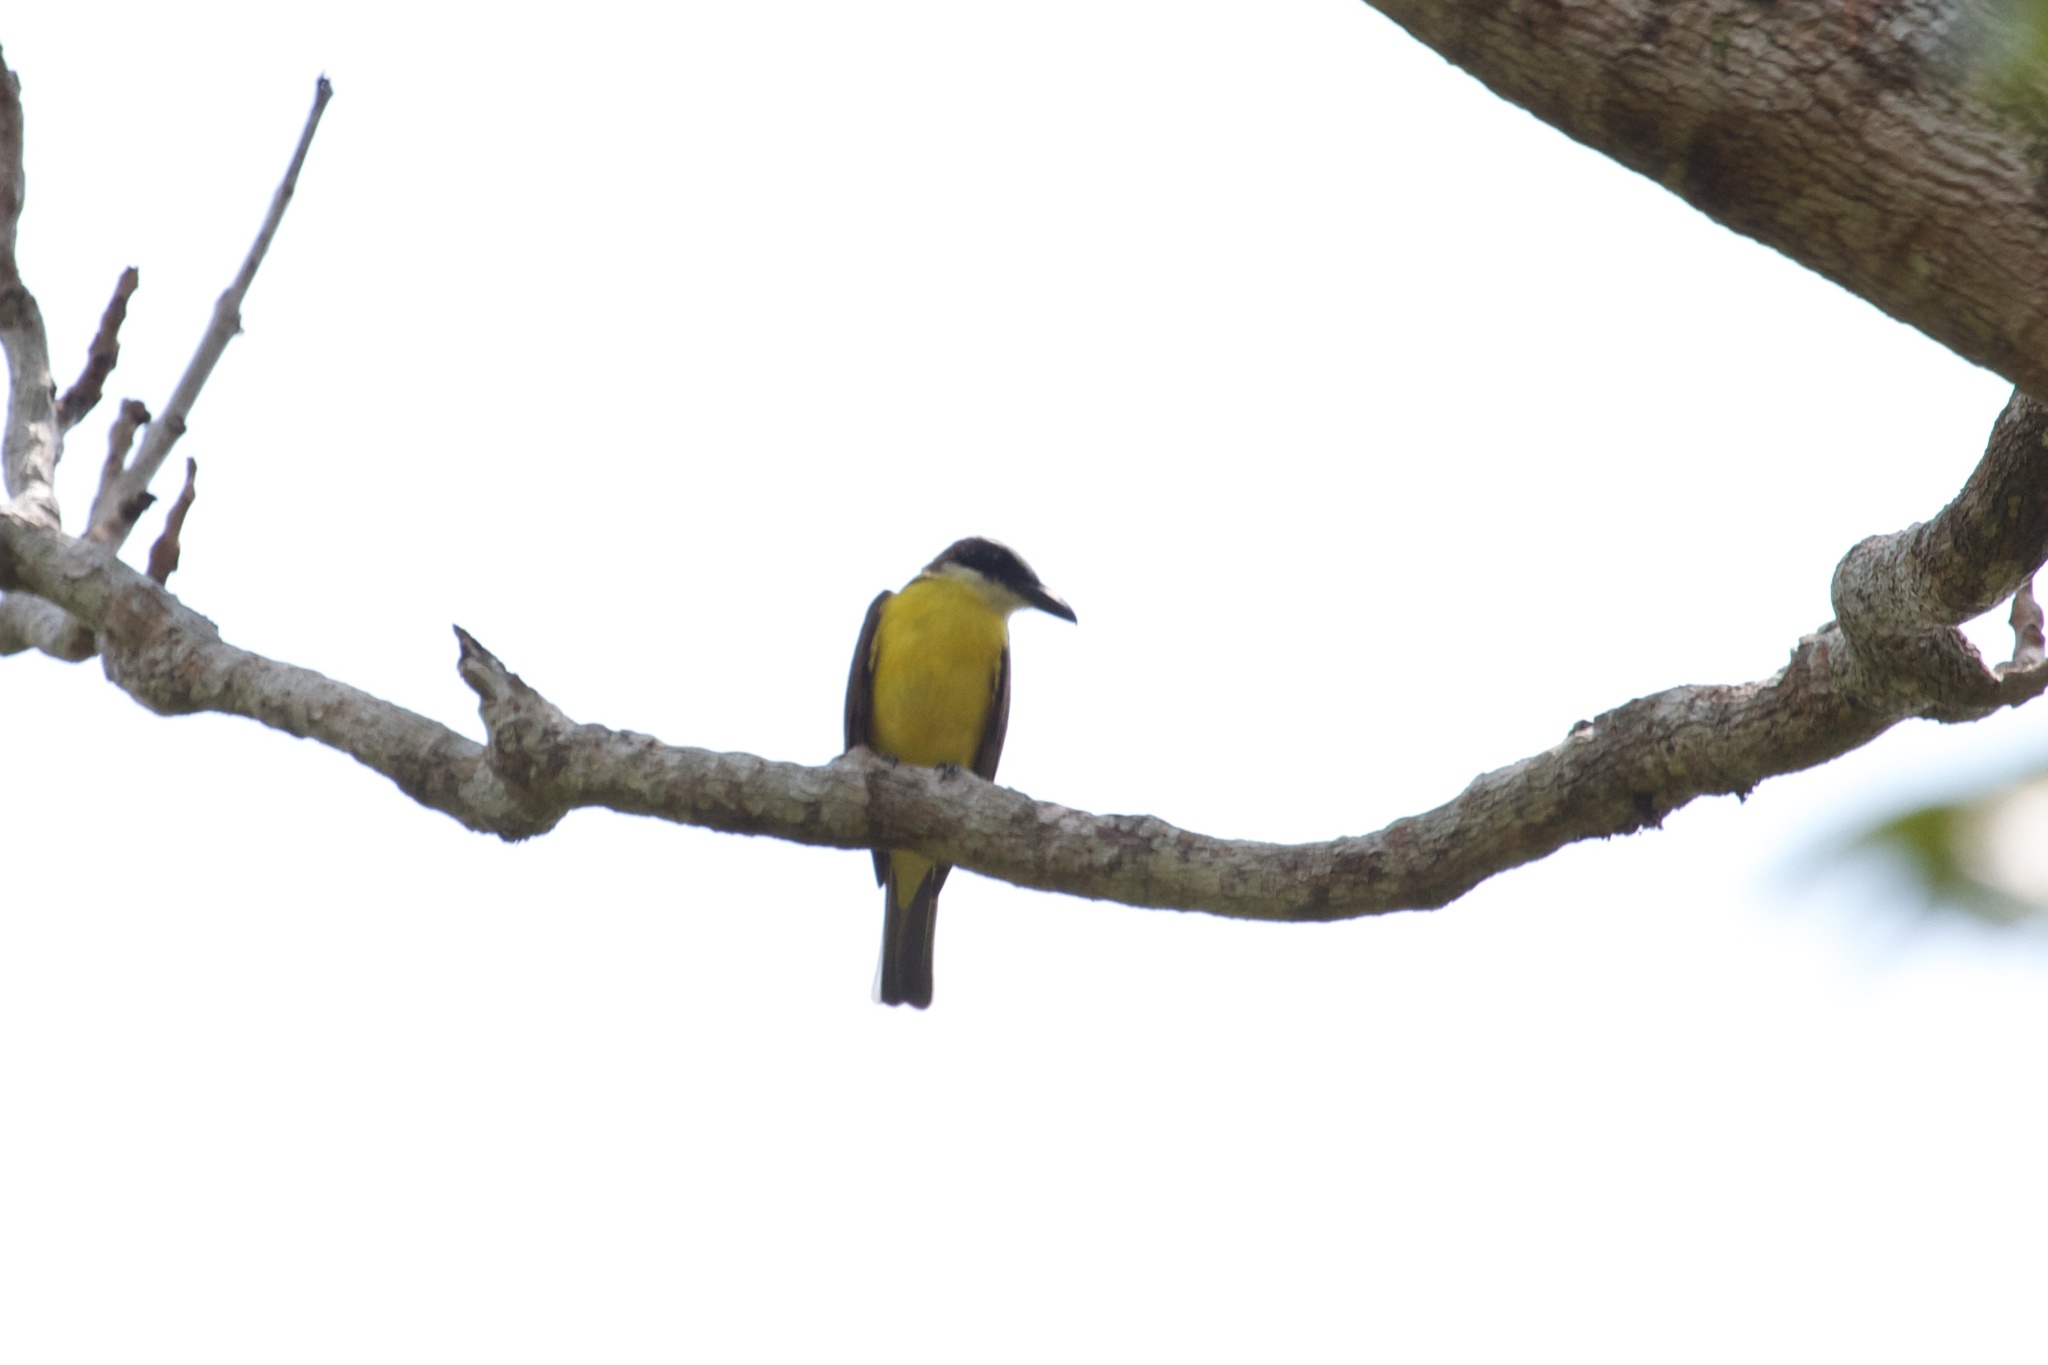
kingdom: Animalia
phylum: Chordata
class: Aves
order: Passeriformes
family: Tyrannidae
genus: Megarynchus
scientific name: Megarynchus pitangua
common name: Boat-billed flycatcher
